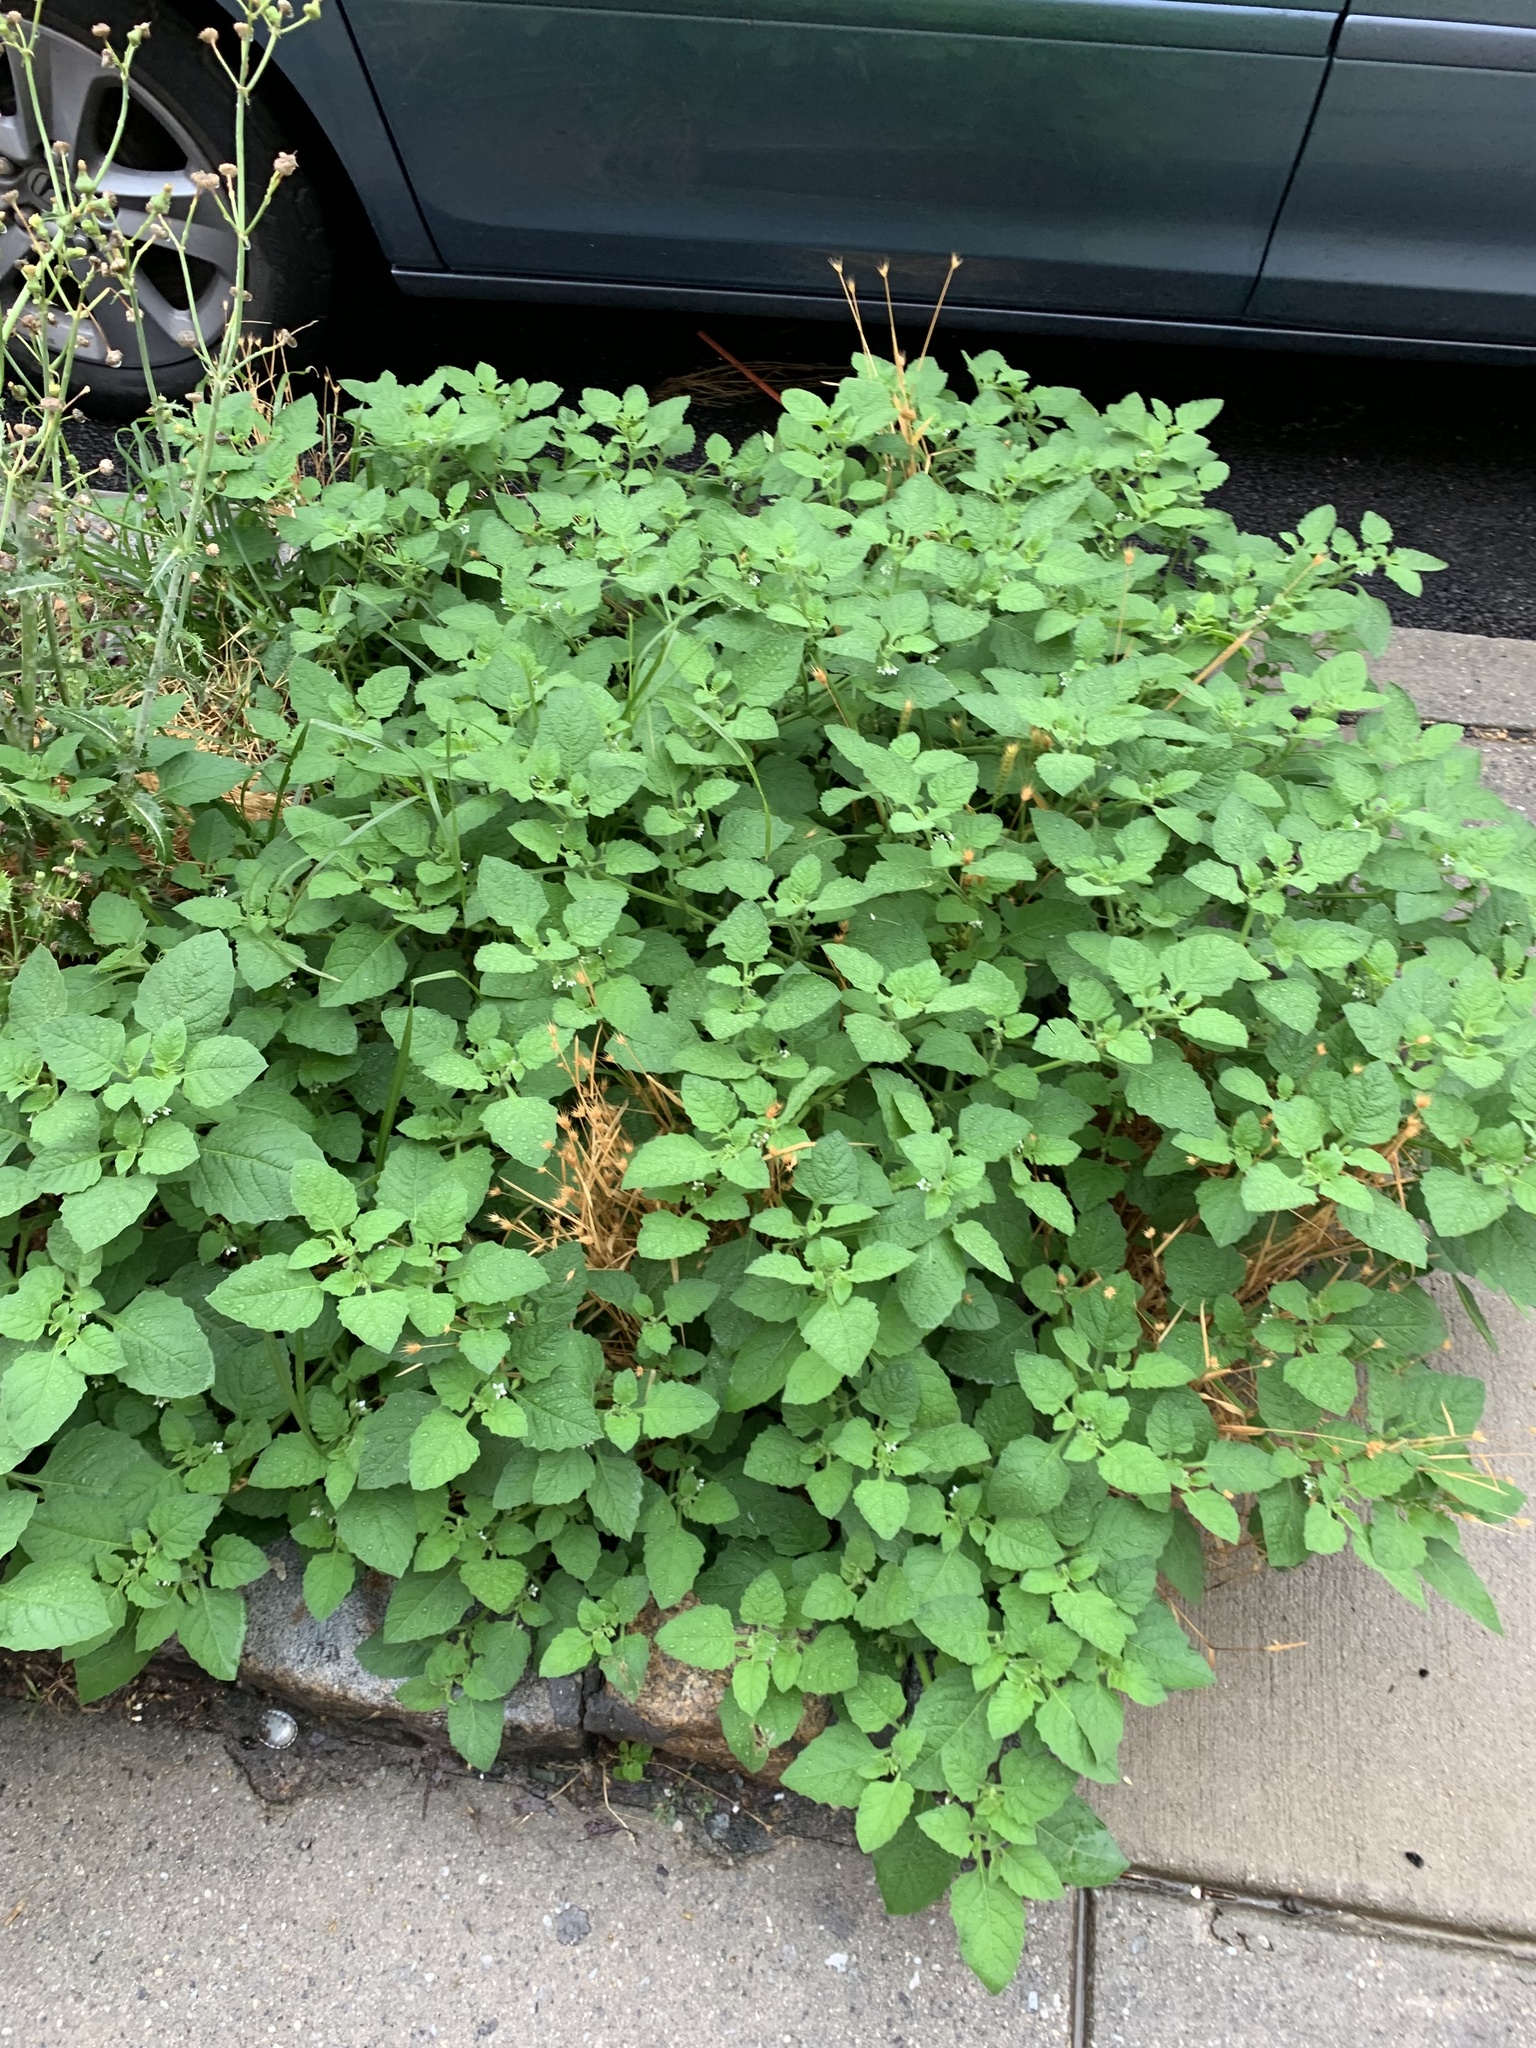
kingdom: Plantae
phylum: Tracheophyta
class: Magnoliopsida
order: Solanales
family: Solanaceae
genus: Solanum
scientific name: Solanum sarrachoides
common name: Leafy-fruited nightshade
